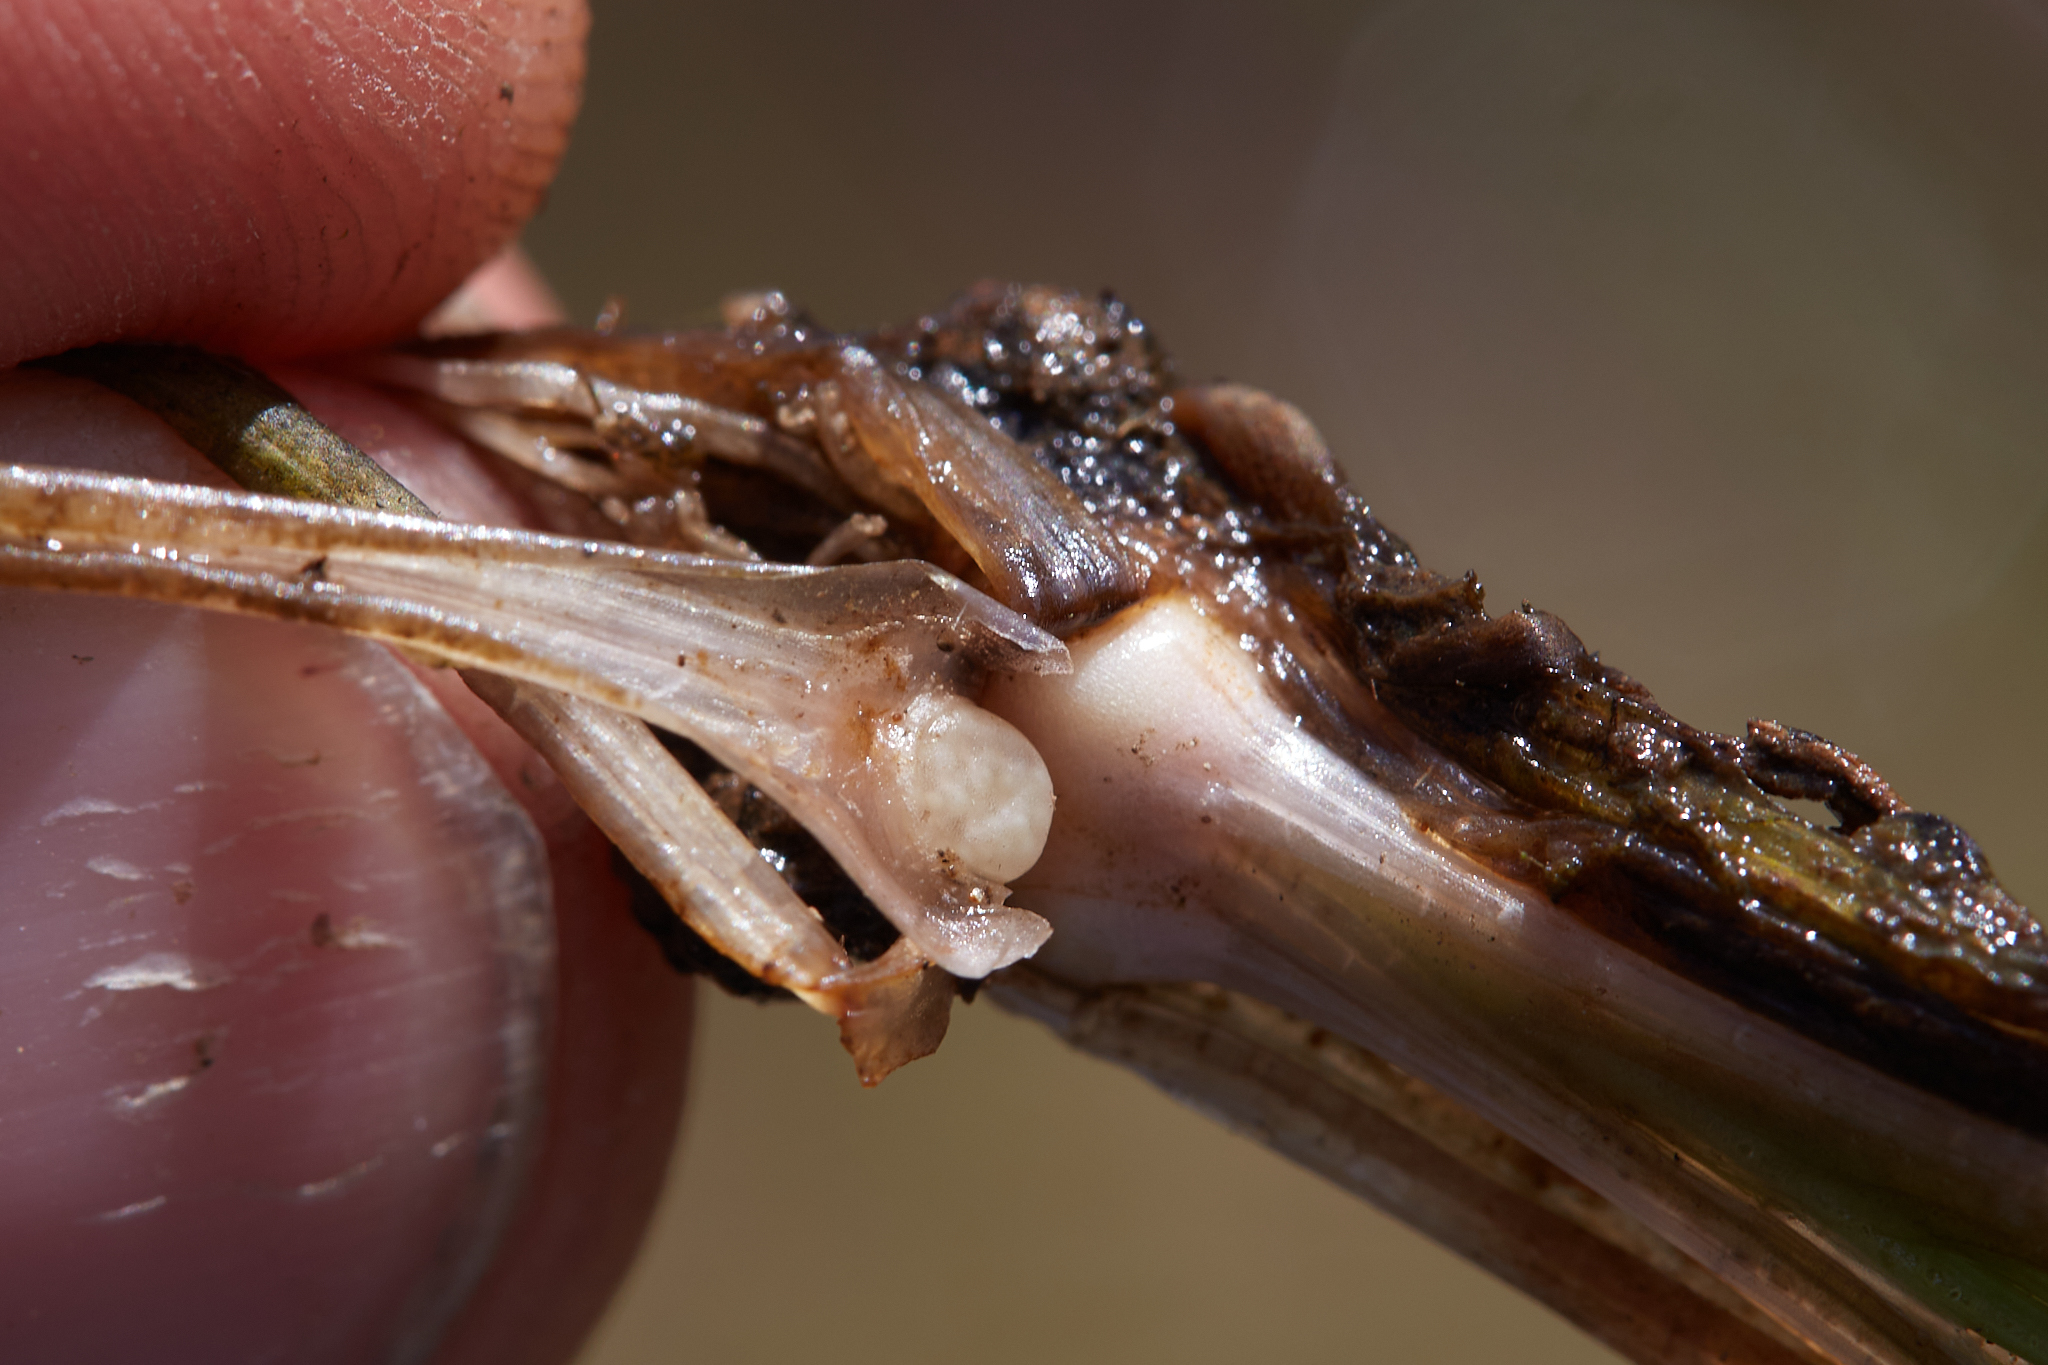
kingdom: Plantae
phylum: Tracheophyta
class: Lycopodiopsida
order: Isoetales
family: Isoetaceae
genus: Isoetes
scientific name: Isoetes howellii
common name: Howell's quillwort
